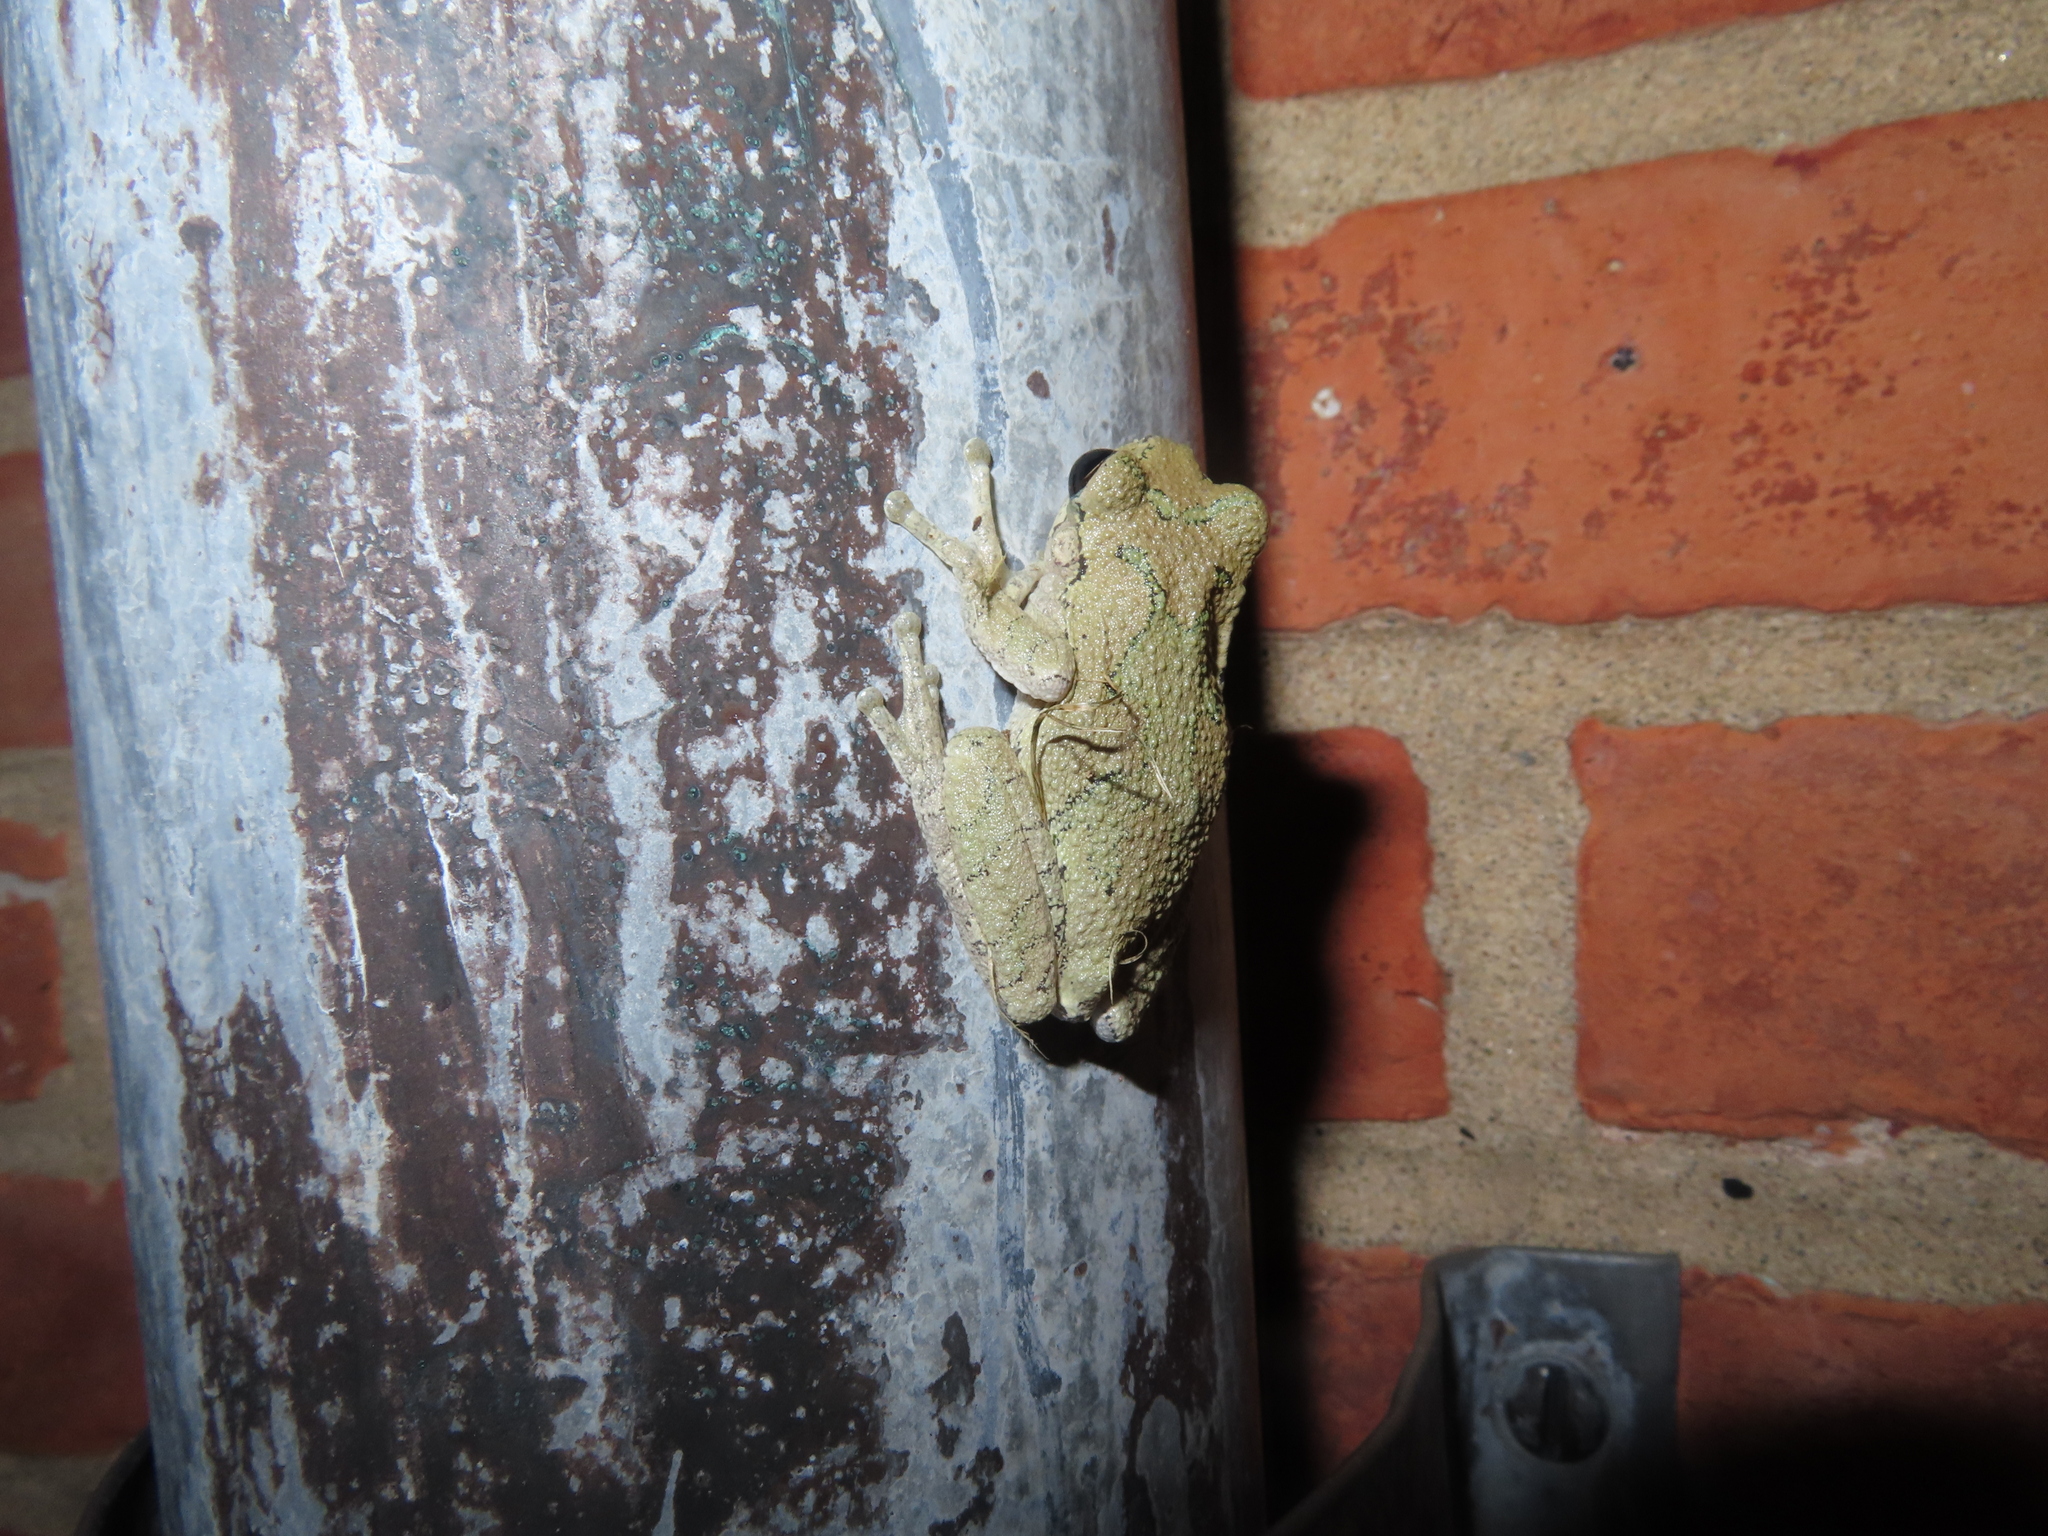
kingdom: Animalia
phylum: Chordata
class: Amphibia
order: Anura
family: Hylidae
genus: Dryophytes
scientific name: Dryophytes chrysoscelis
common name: Cope's gray treefrog
